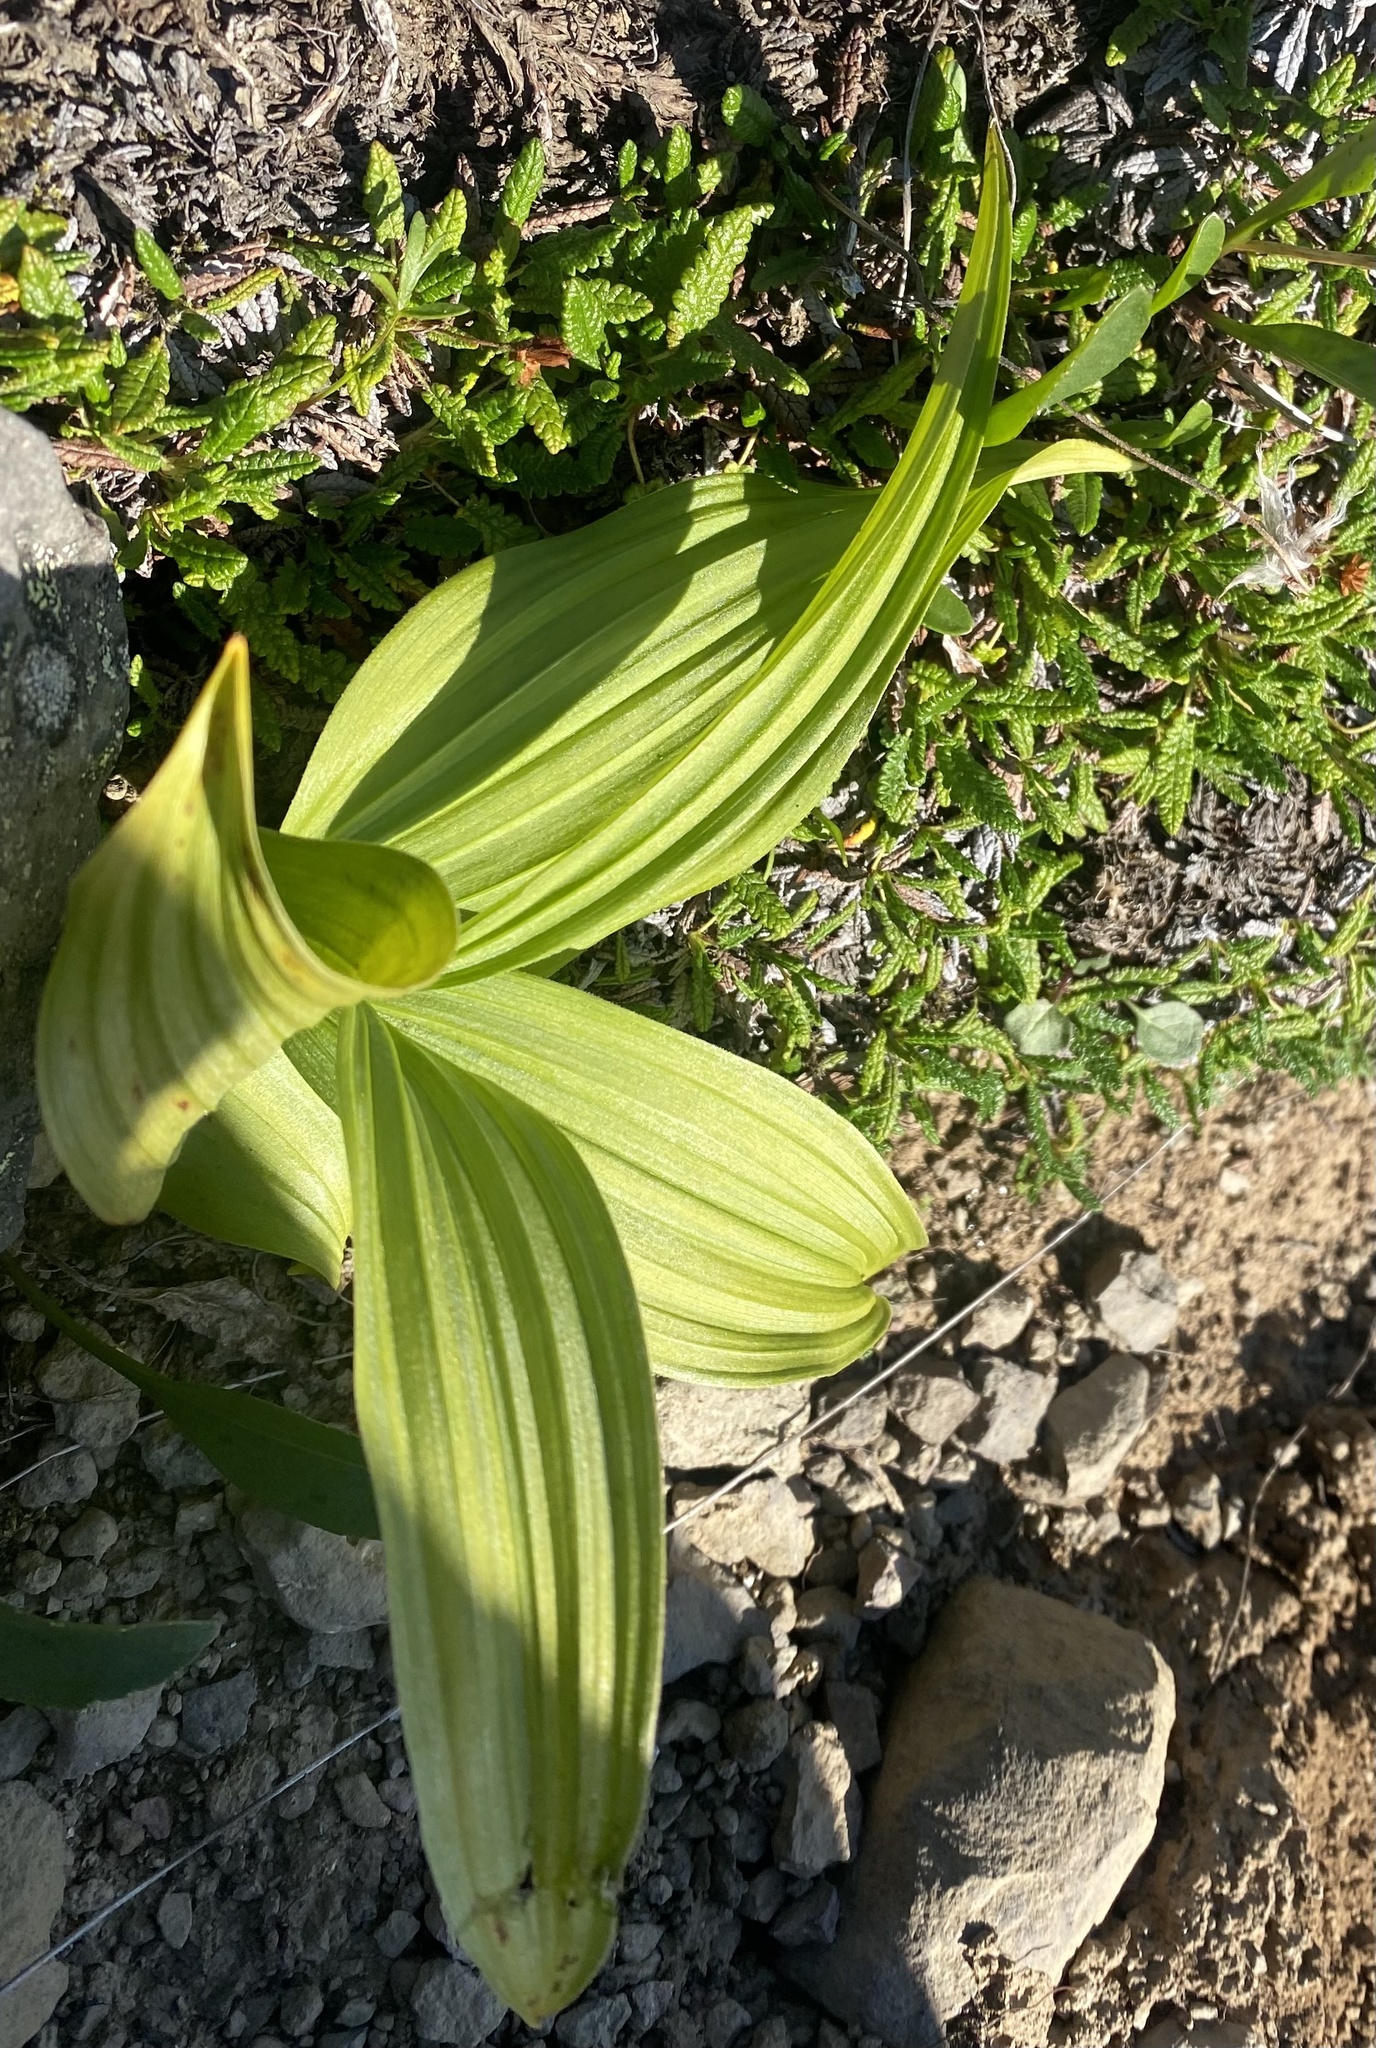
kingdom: Plantae
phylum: Tracheophyta
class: Liliopsida
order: Liliales
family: Melanthiaceae
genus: Veratrum
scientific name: Veratrum lobelianum
